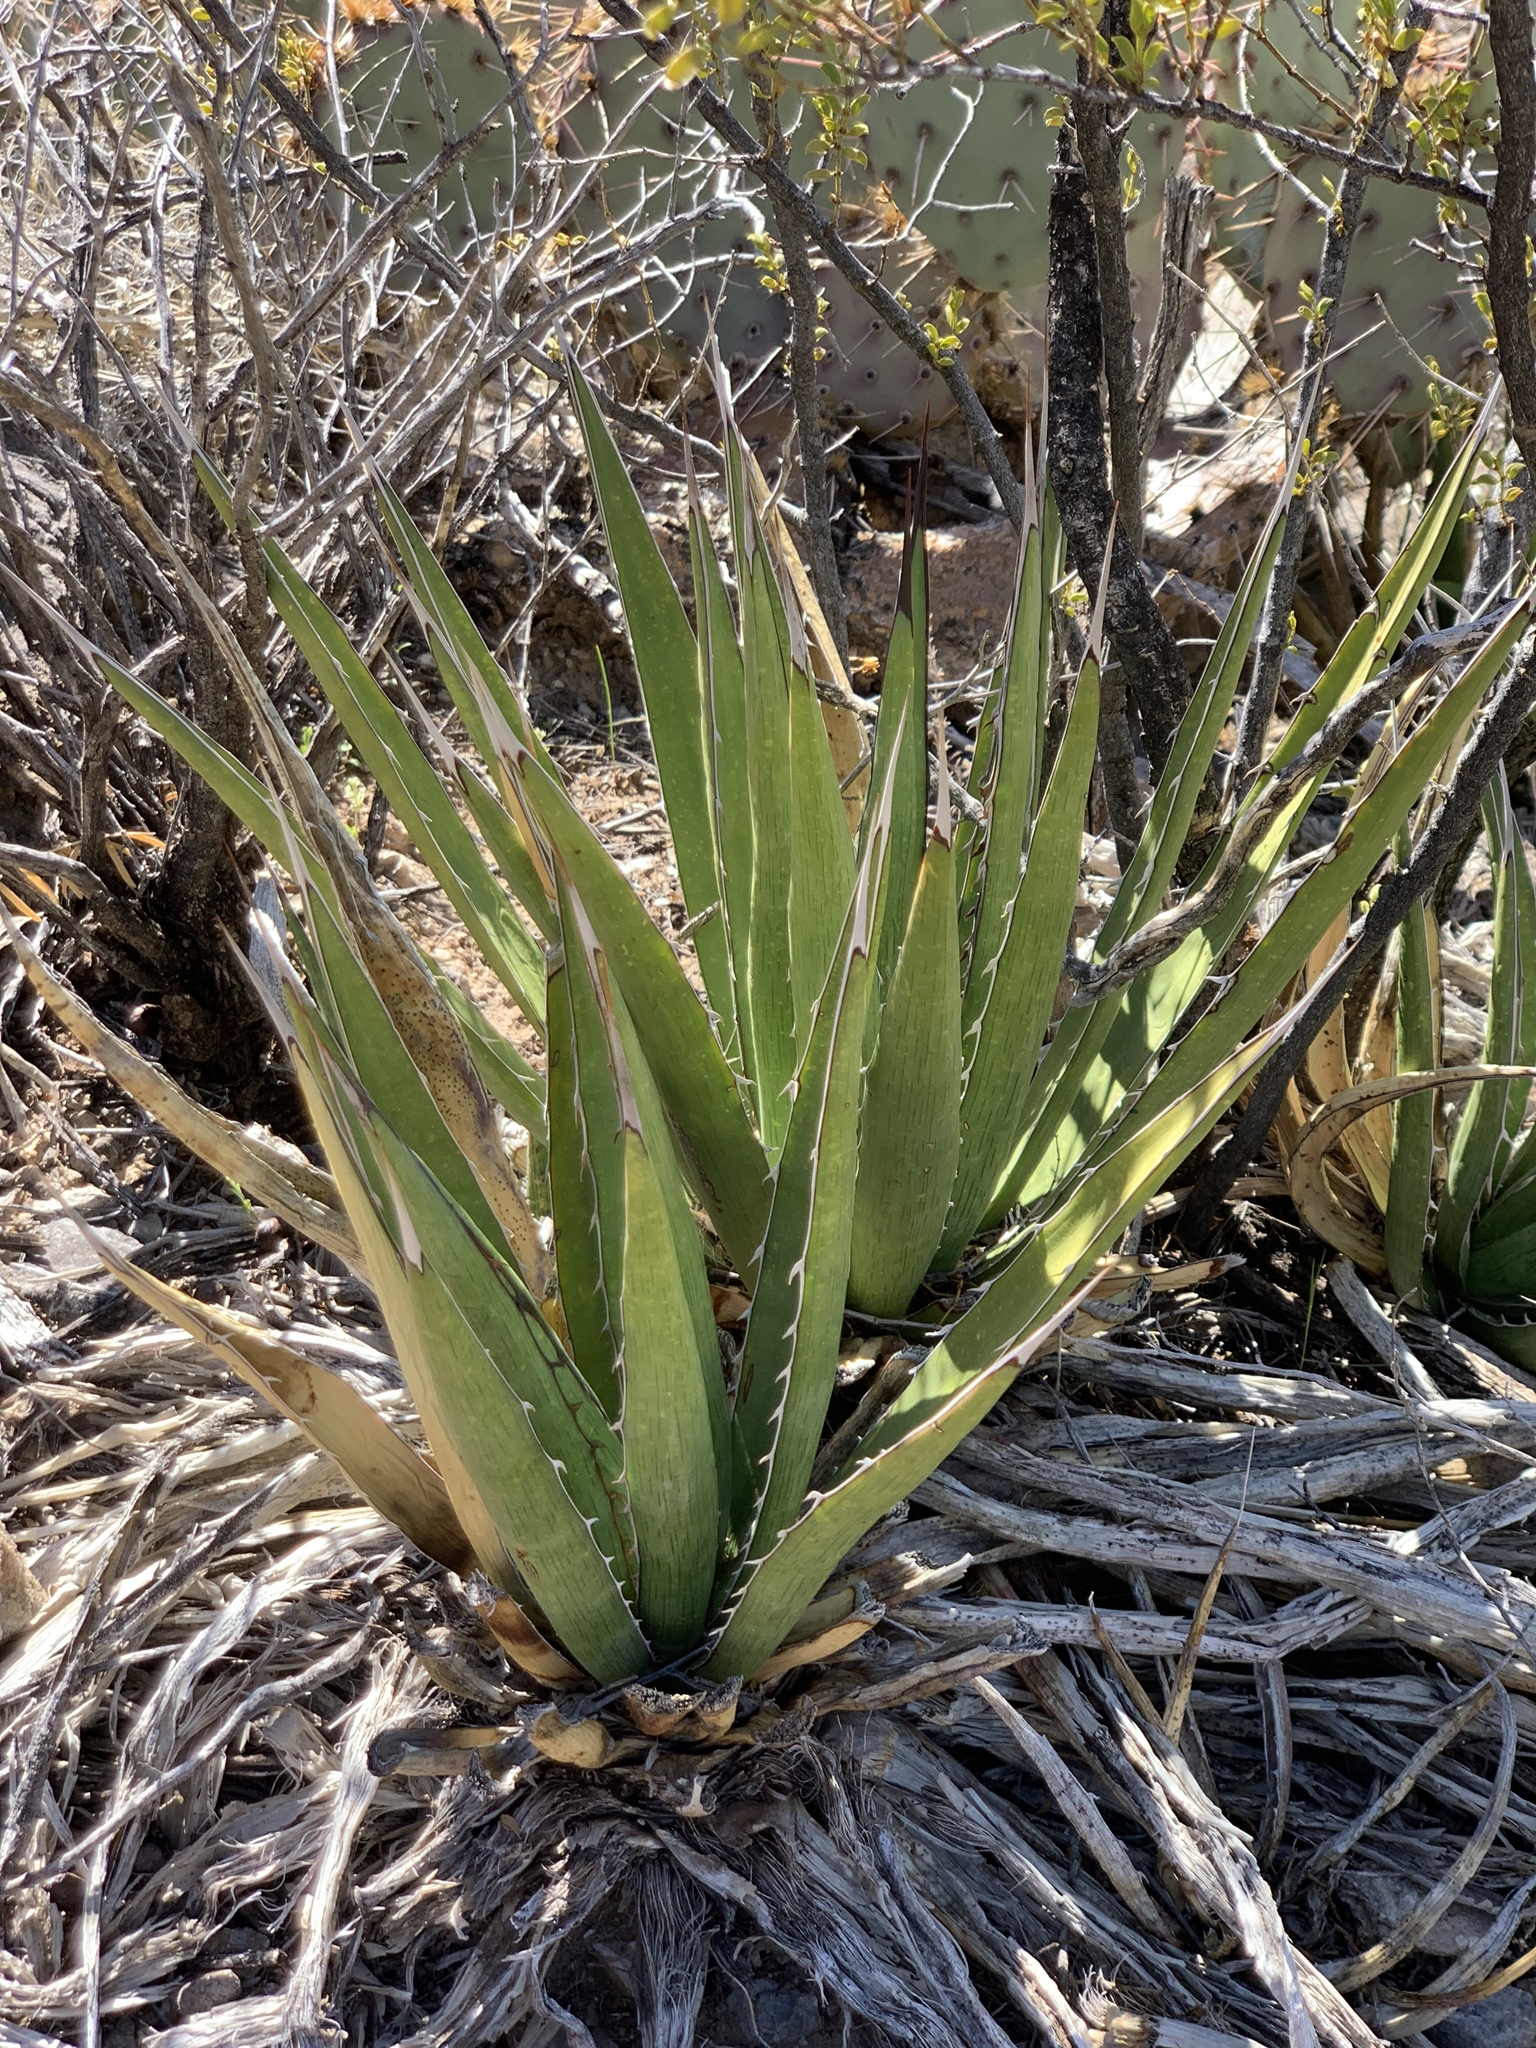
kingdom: Plantae
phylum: Tracheophyta
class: Liliopsida
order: Asparagales
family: Asparagaceae
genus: Agave
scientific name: Agave lechuguilla
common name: Lecheguilla agave
